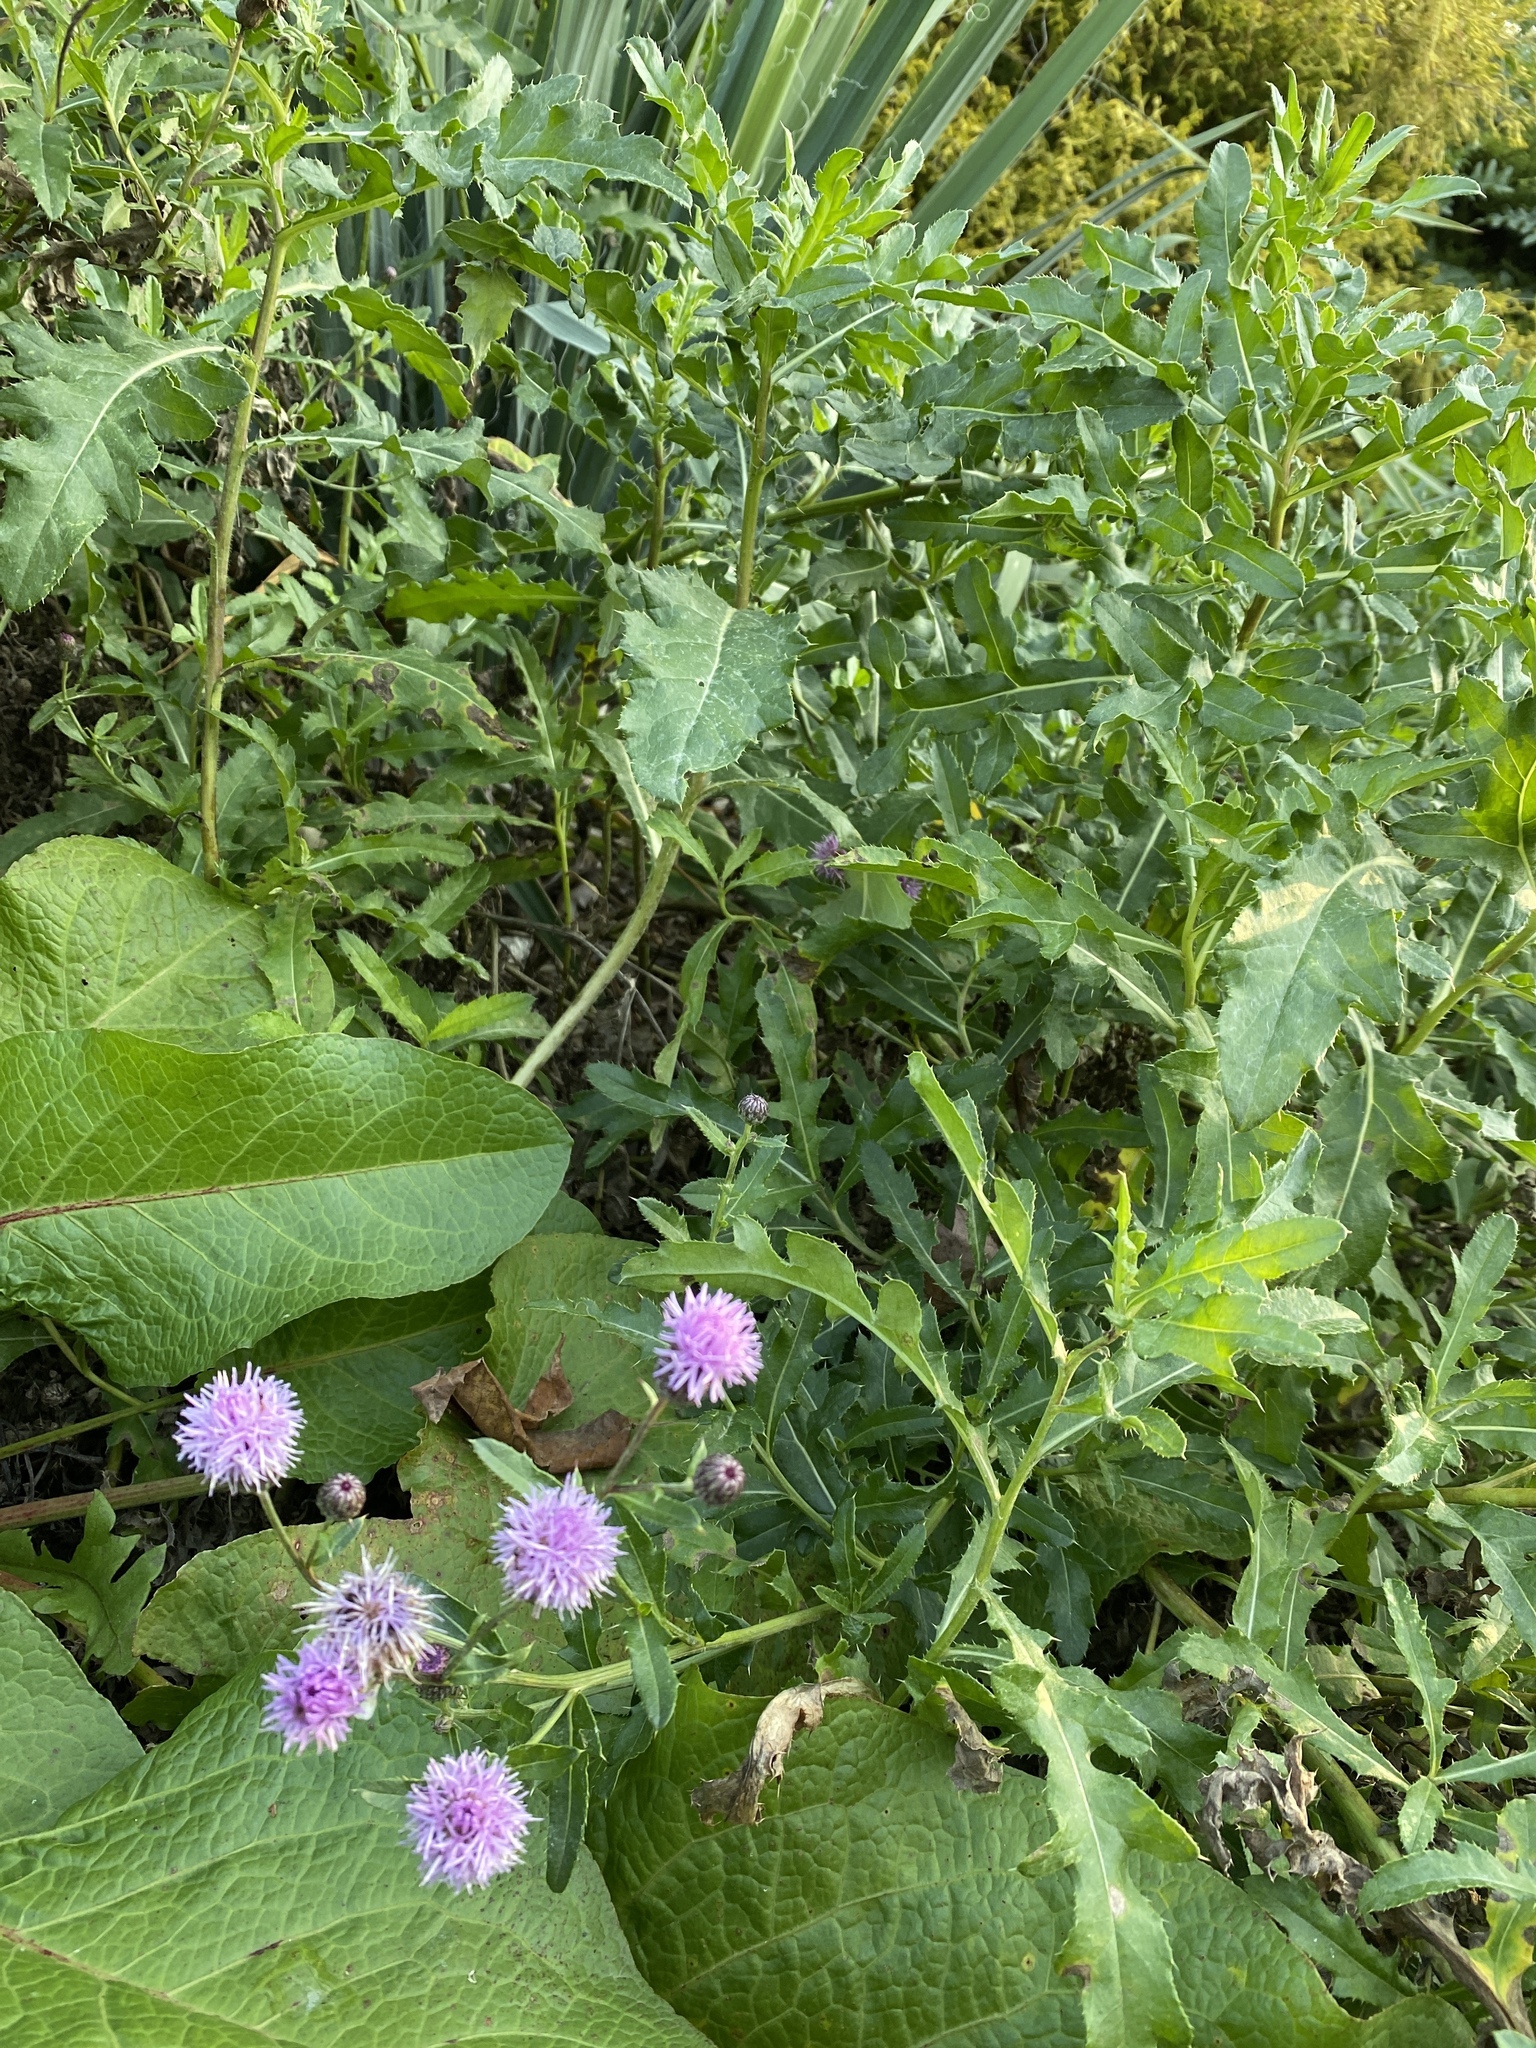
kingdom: Plantae
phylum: Tracheophyta
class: Magnoliopsida
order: Asterales
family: Asteraceae
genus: Cirsium
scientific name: Cirsium arvense
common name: Creeping thistle
